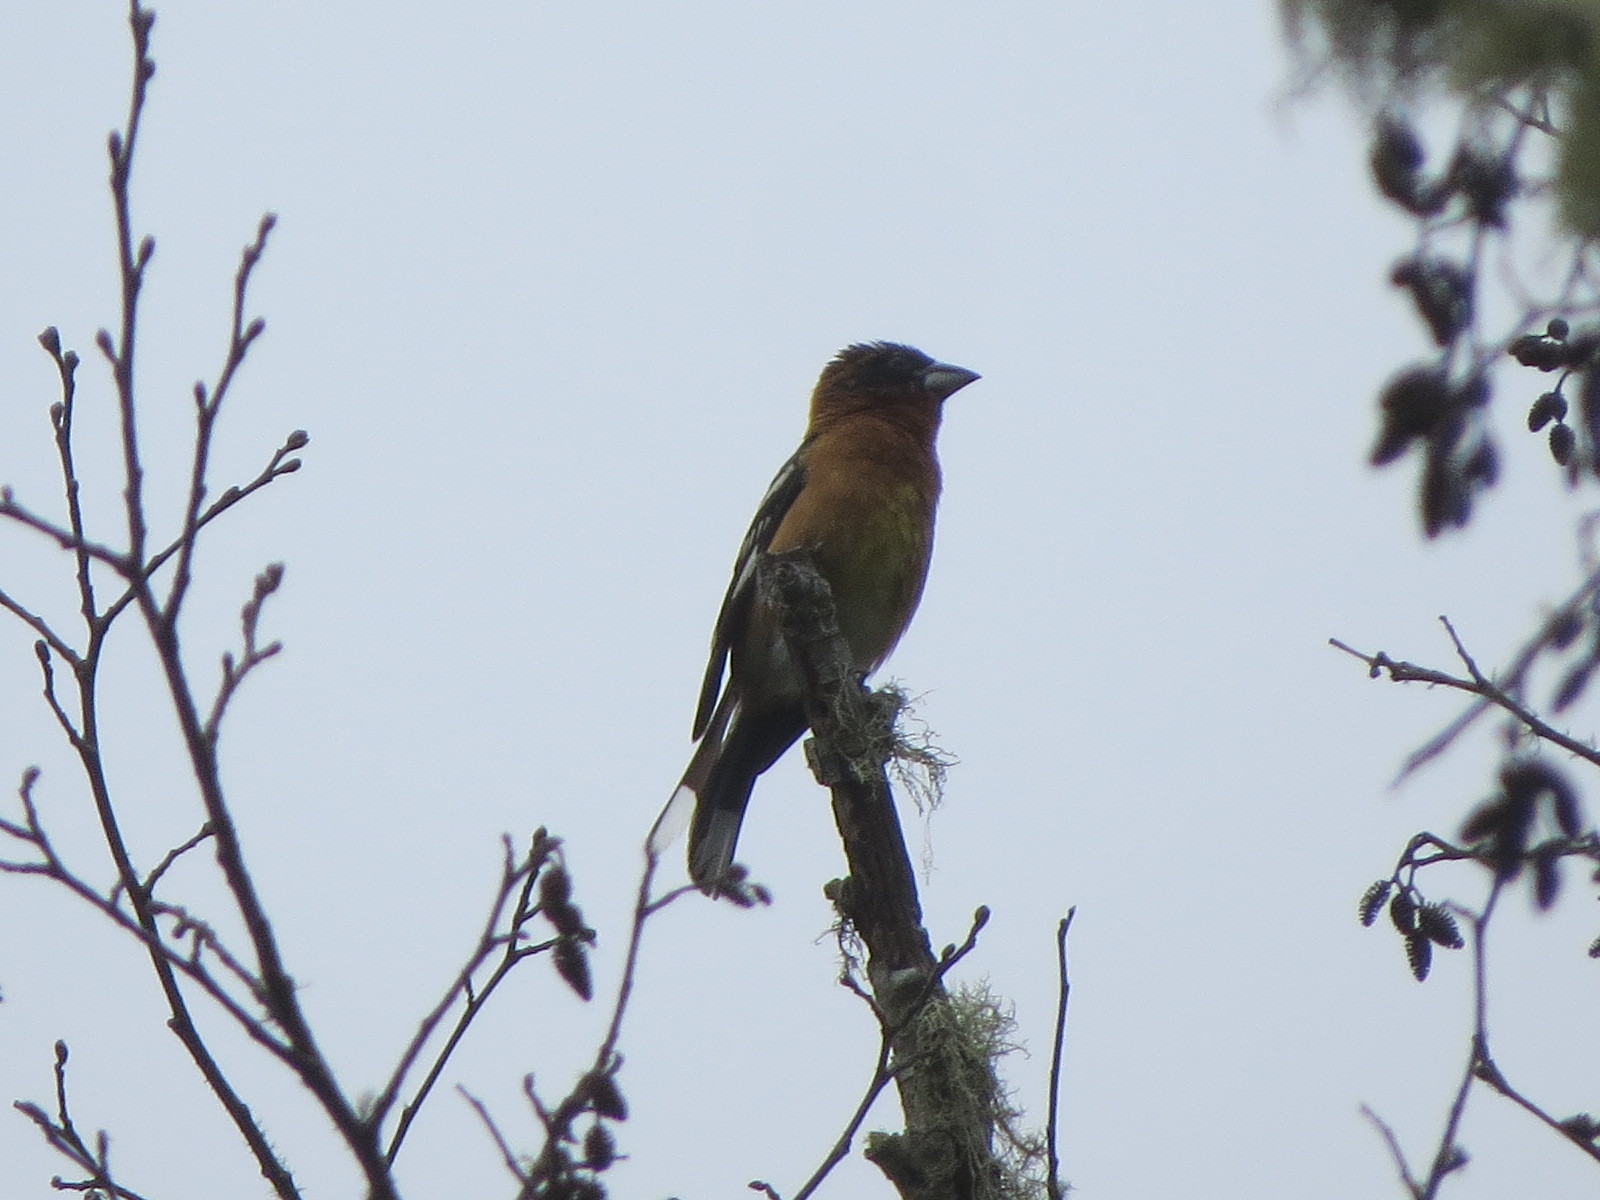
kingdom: Animalia
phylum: Chordata
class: Aves
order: Passeriformes
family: Cardinalidae
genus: Pheucticus
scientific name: Pheucticus melanocephalus
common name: Black-headed grosbeak
